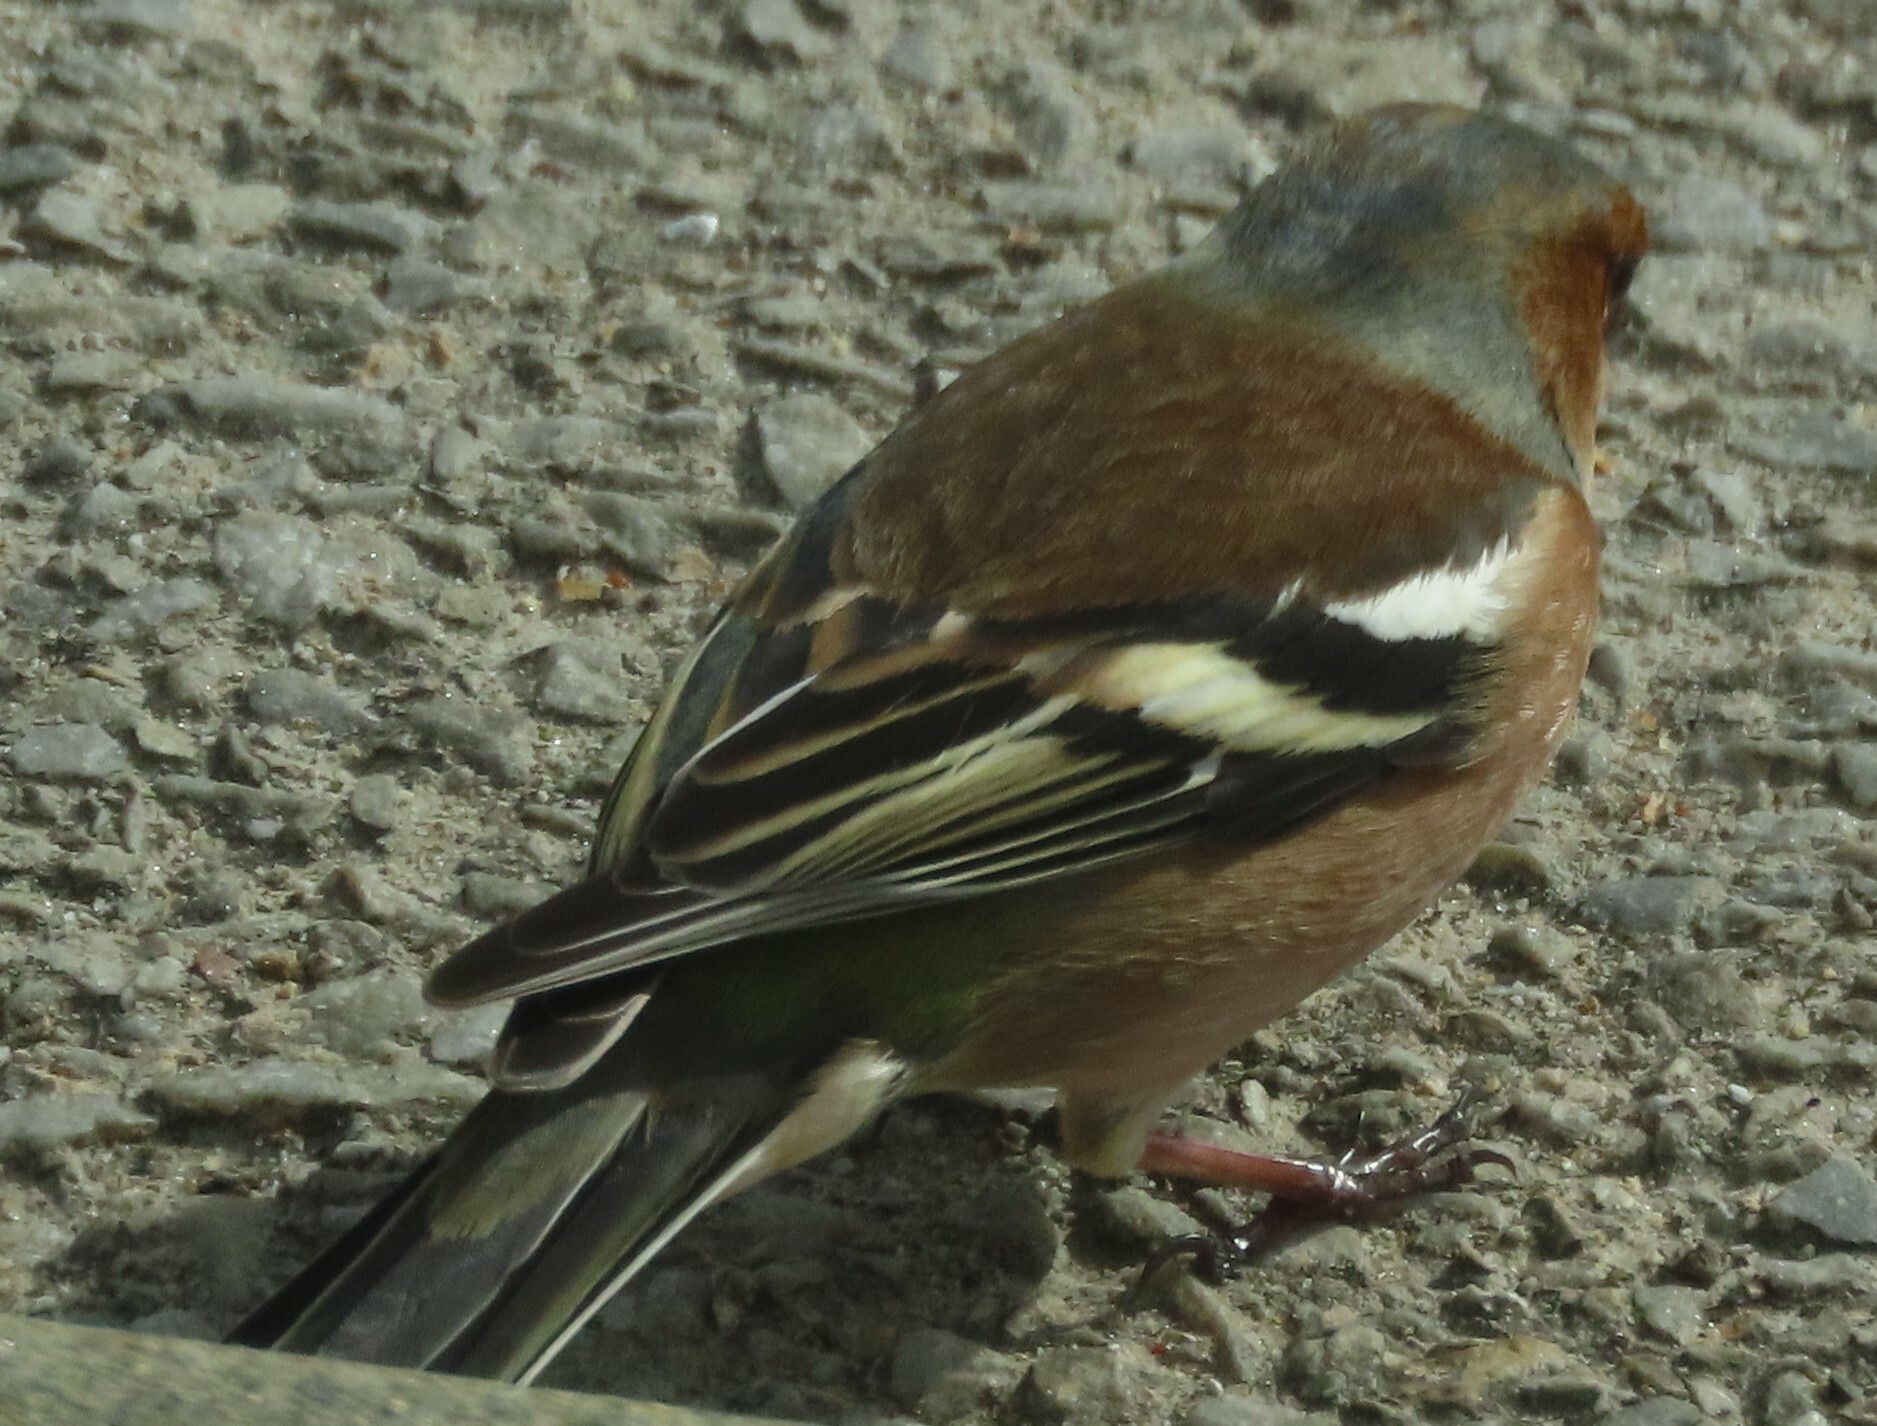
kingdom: Animalia
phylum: Chordata
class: Aves
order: Passeriformes
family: Fringillidae
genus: Fringilla
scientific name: Fringilla coelebs
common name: Common chaffinch
